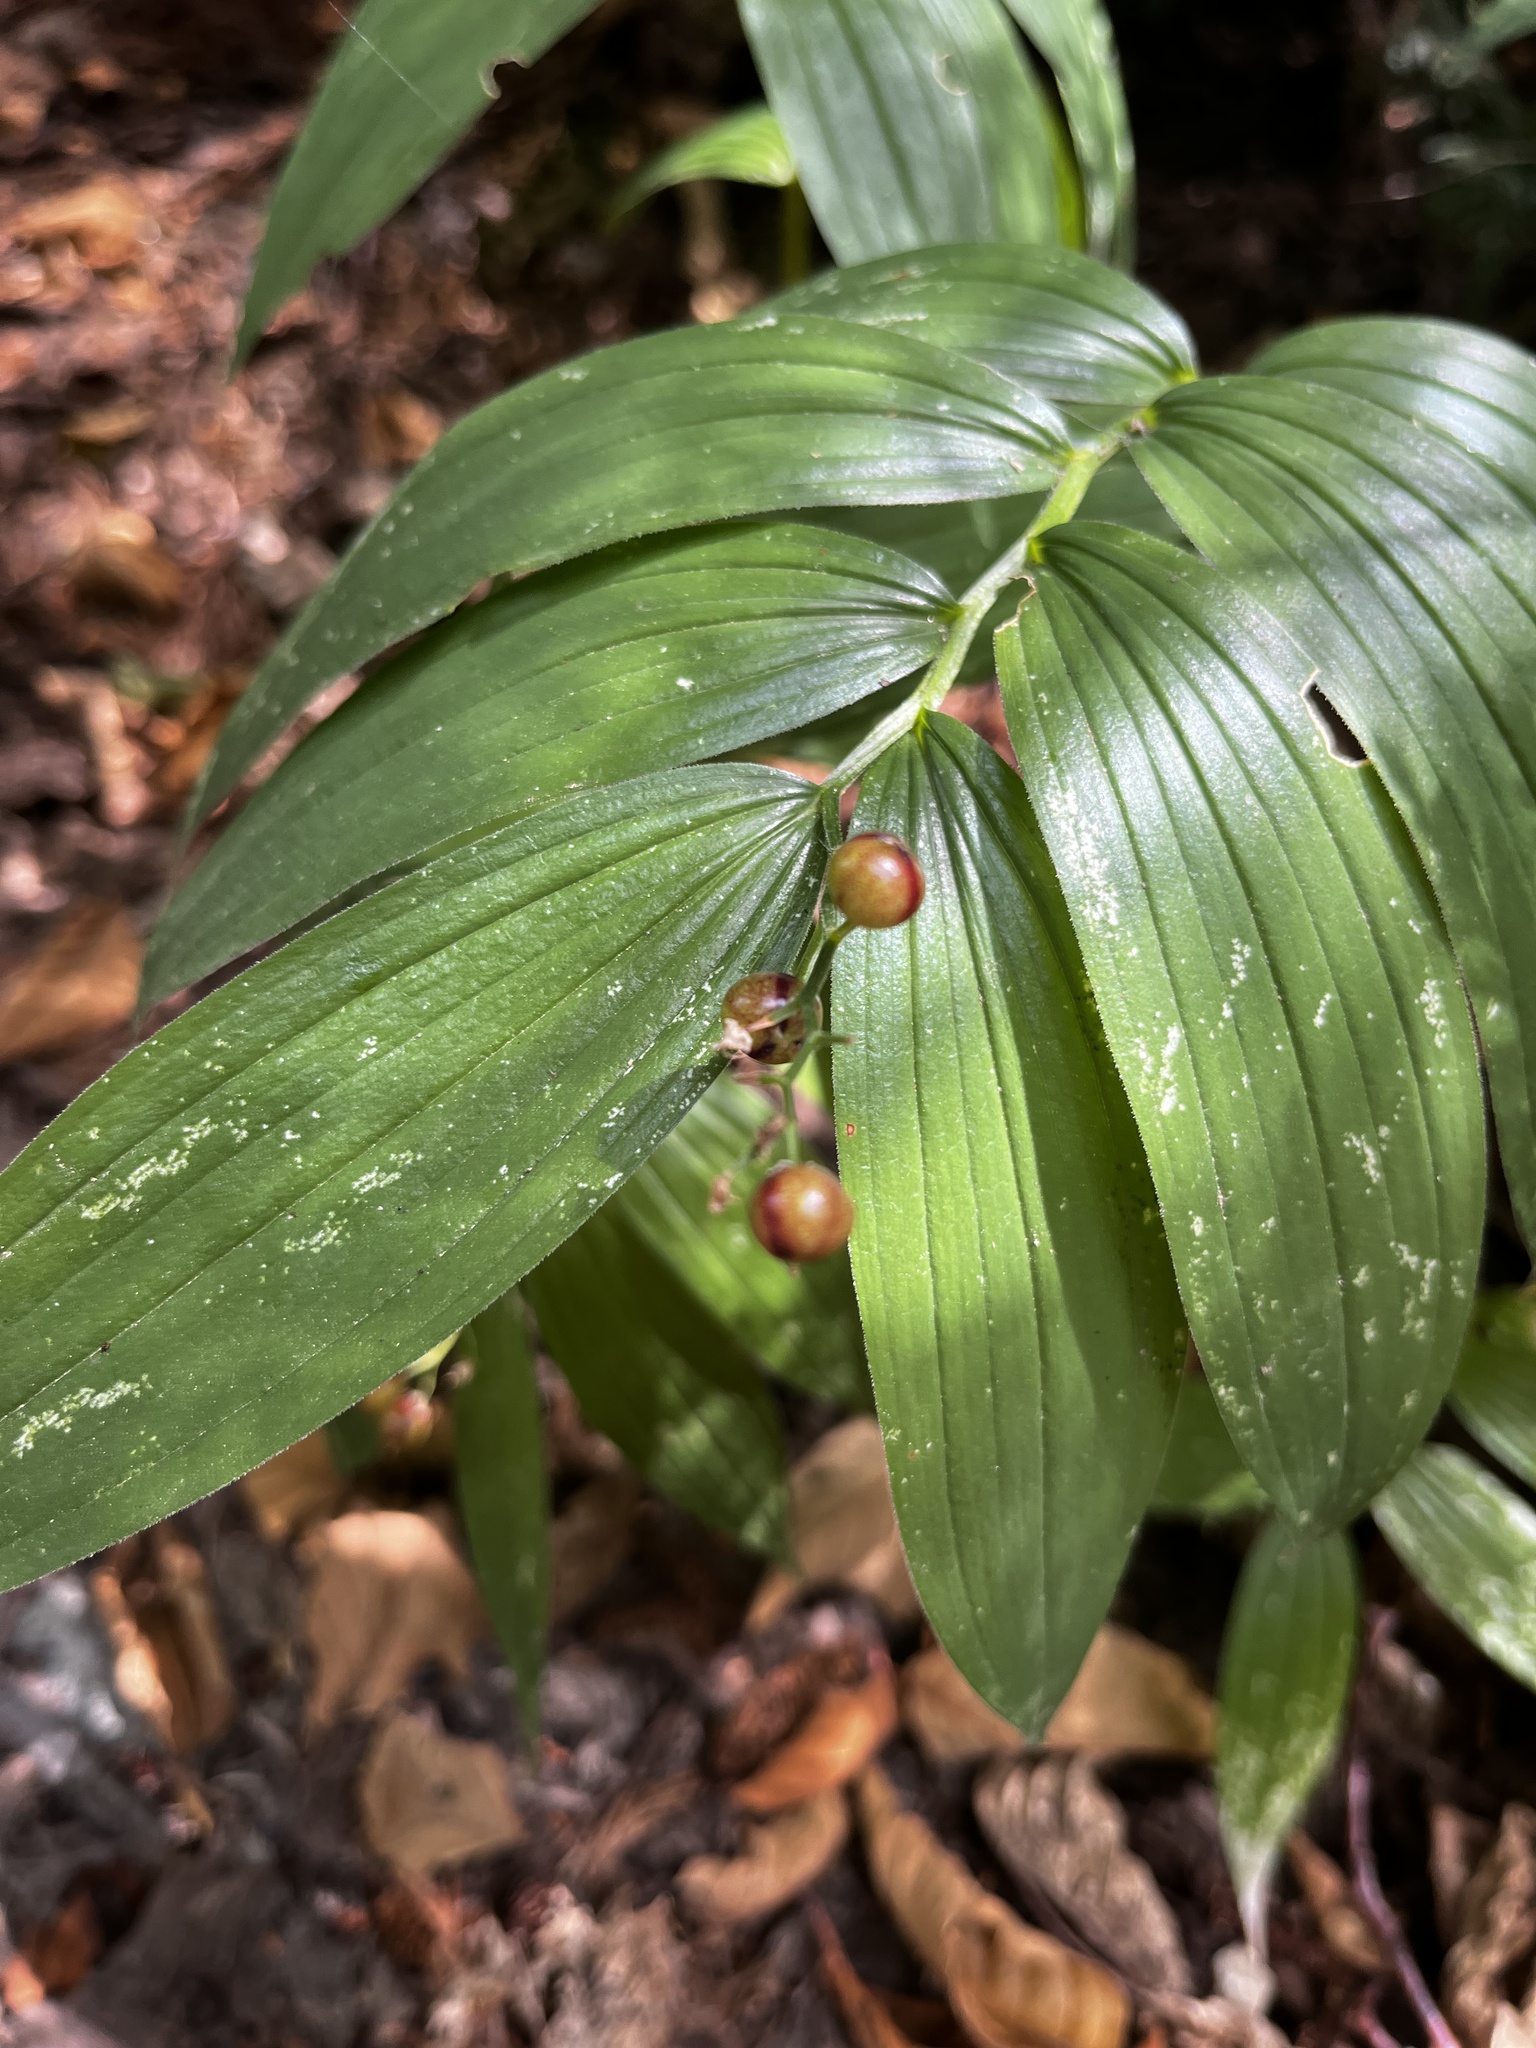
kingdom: Plantae
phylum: Tracheophyta
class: Liliopsida
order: Asparagales
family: Asparagaceae
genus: Maianthemum
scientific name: Maianthemum stellatum
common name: Little false solomon's seal
